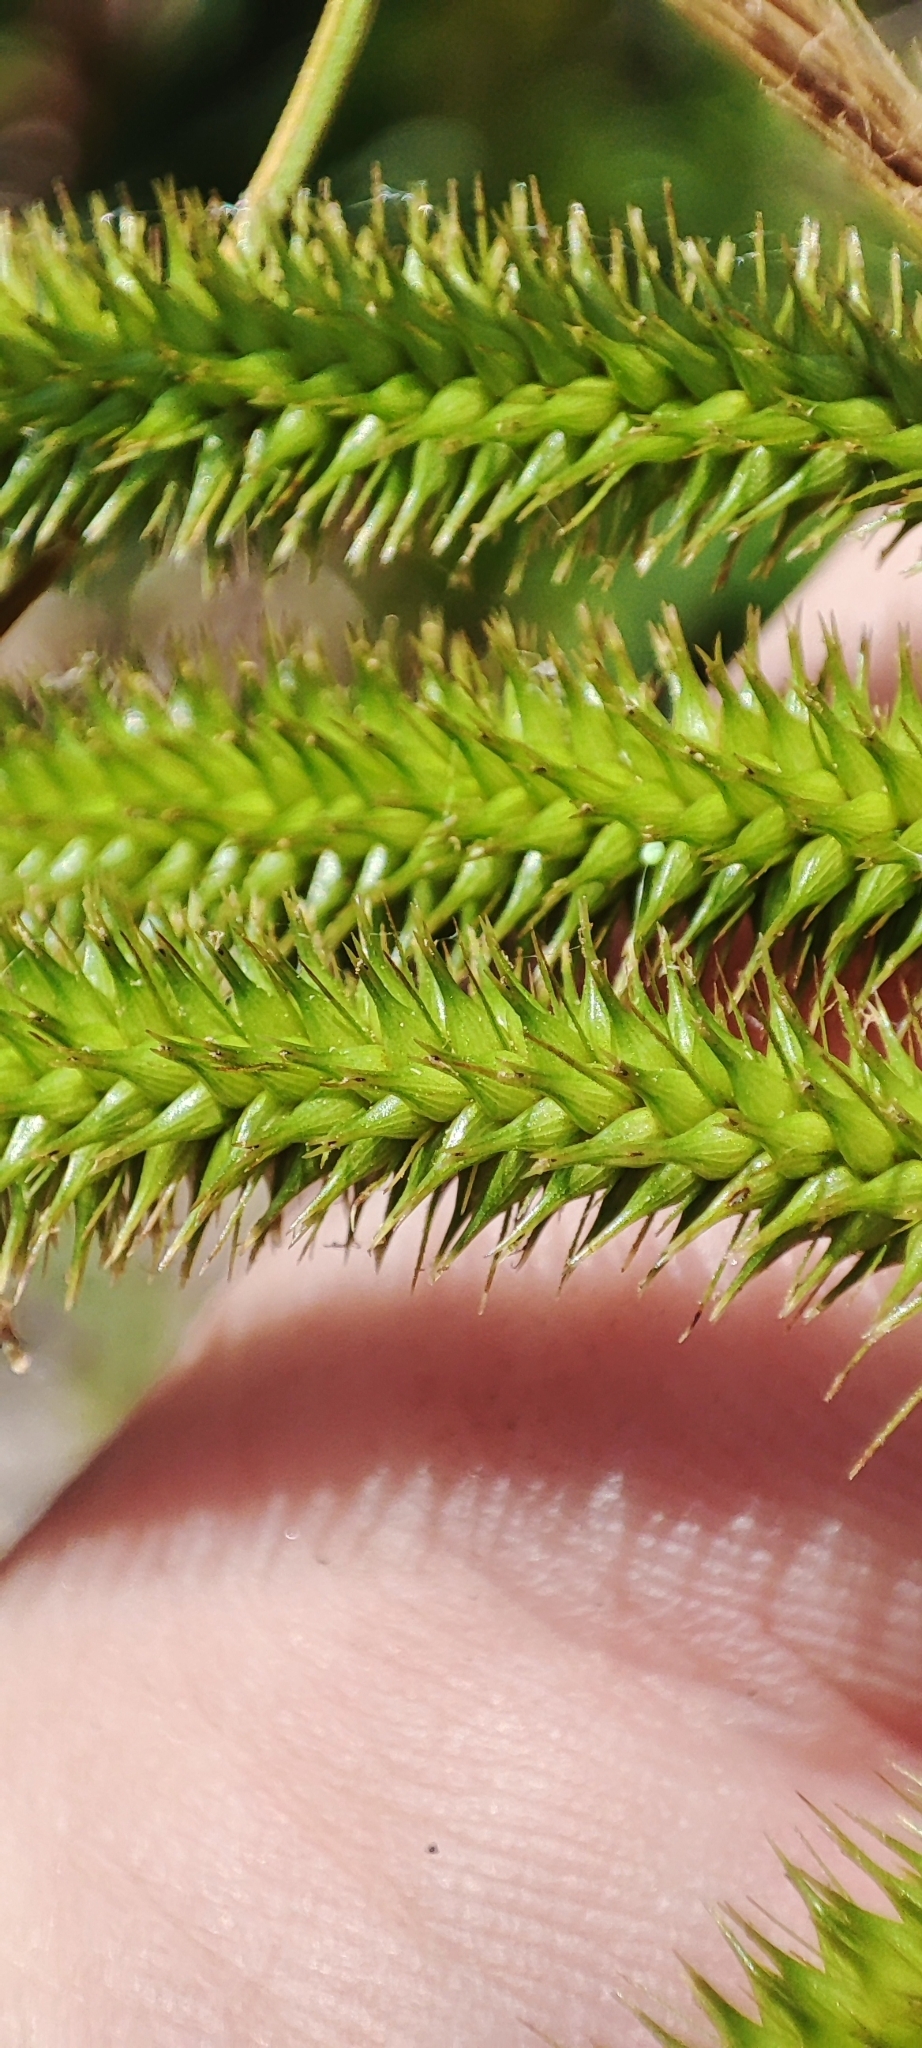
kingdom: Plantae
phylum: Tracheophyta
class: Liliopsida
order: Poales
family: Cyperaceae
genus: Carex
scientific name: Carex pseudocyperus
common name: Cyperus sedge
